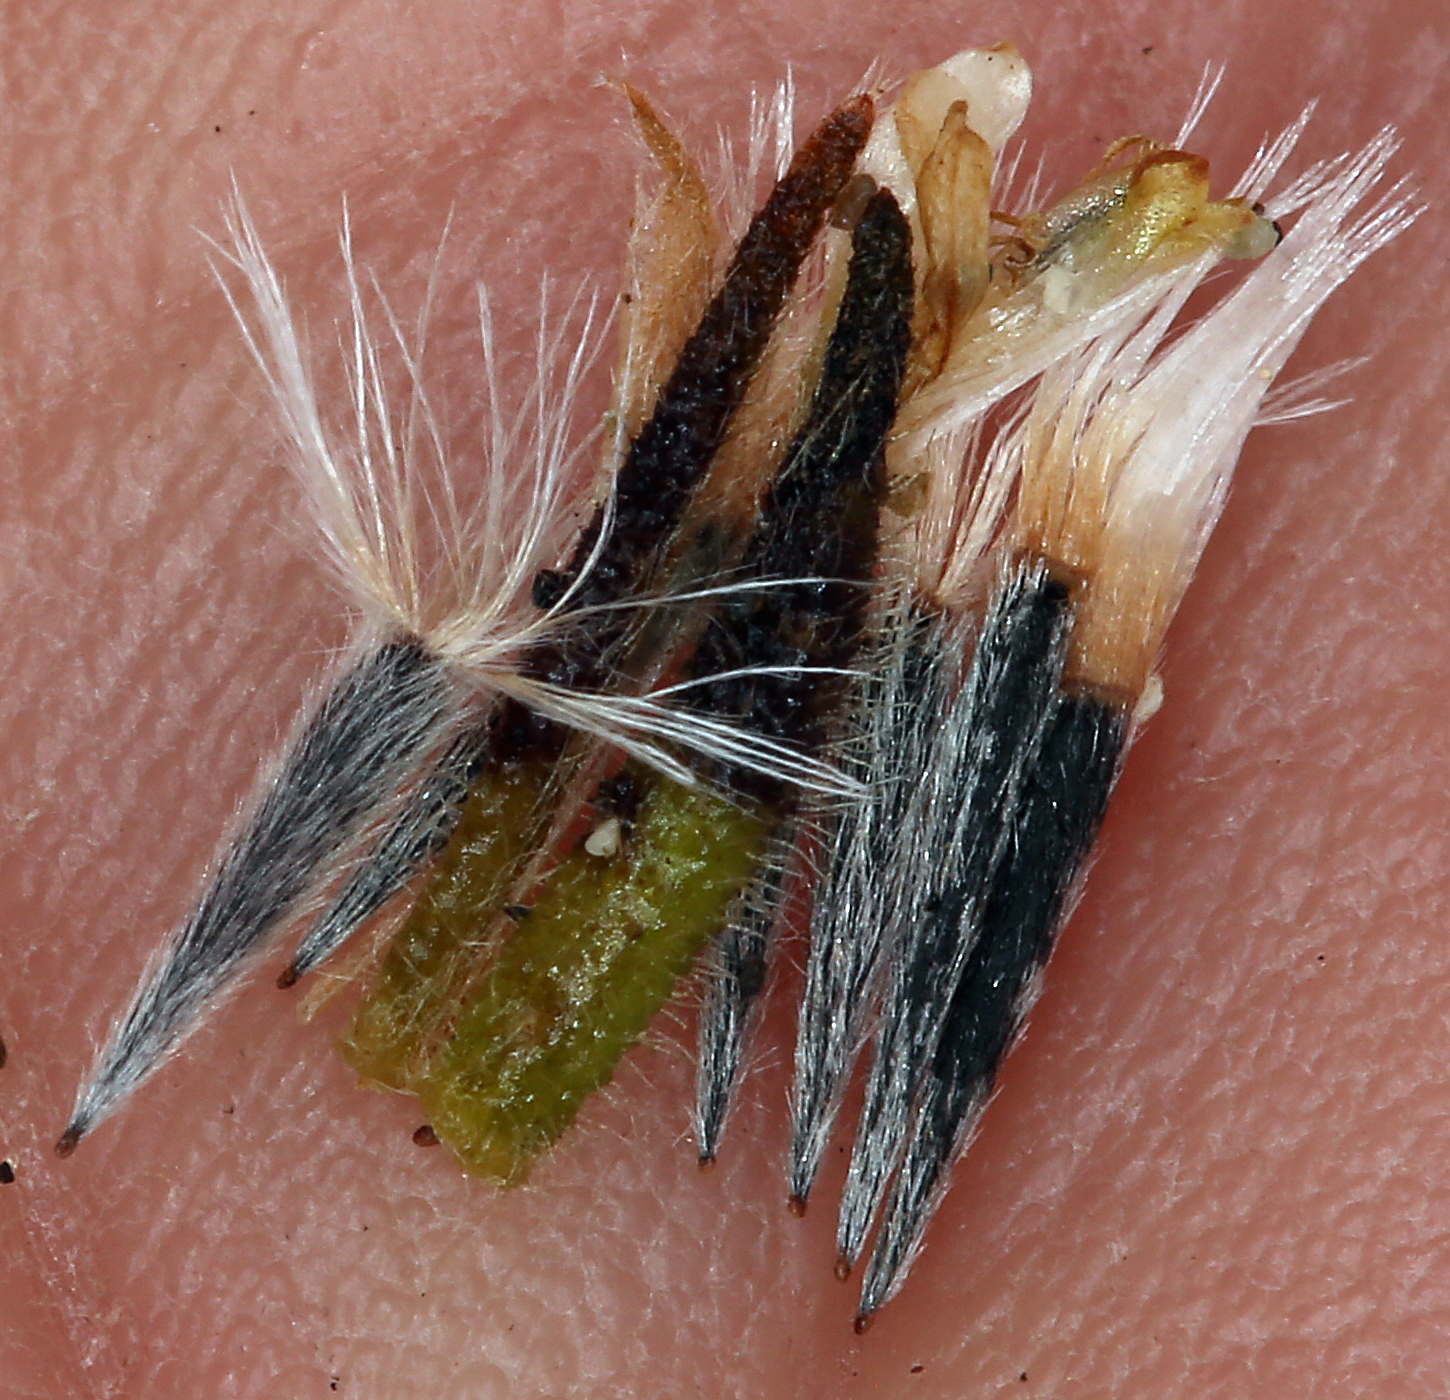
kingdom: Plantae
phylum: Tracheophyta
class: Magnoliopsida
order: Asterales
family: Asteraceae
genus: Layia
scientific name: Layia carnosa
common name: Beach layia
